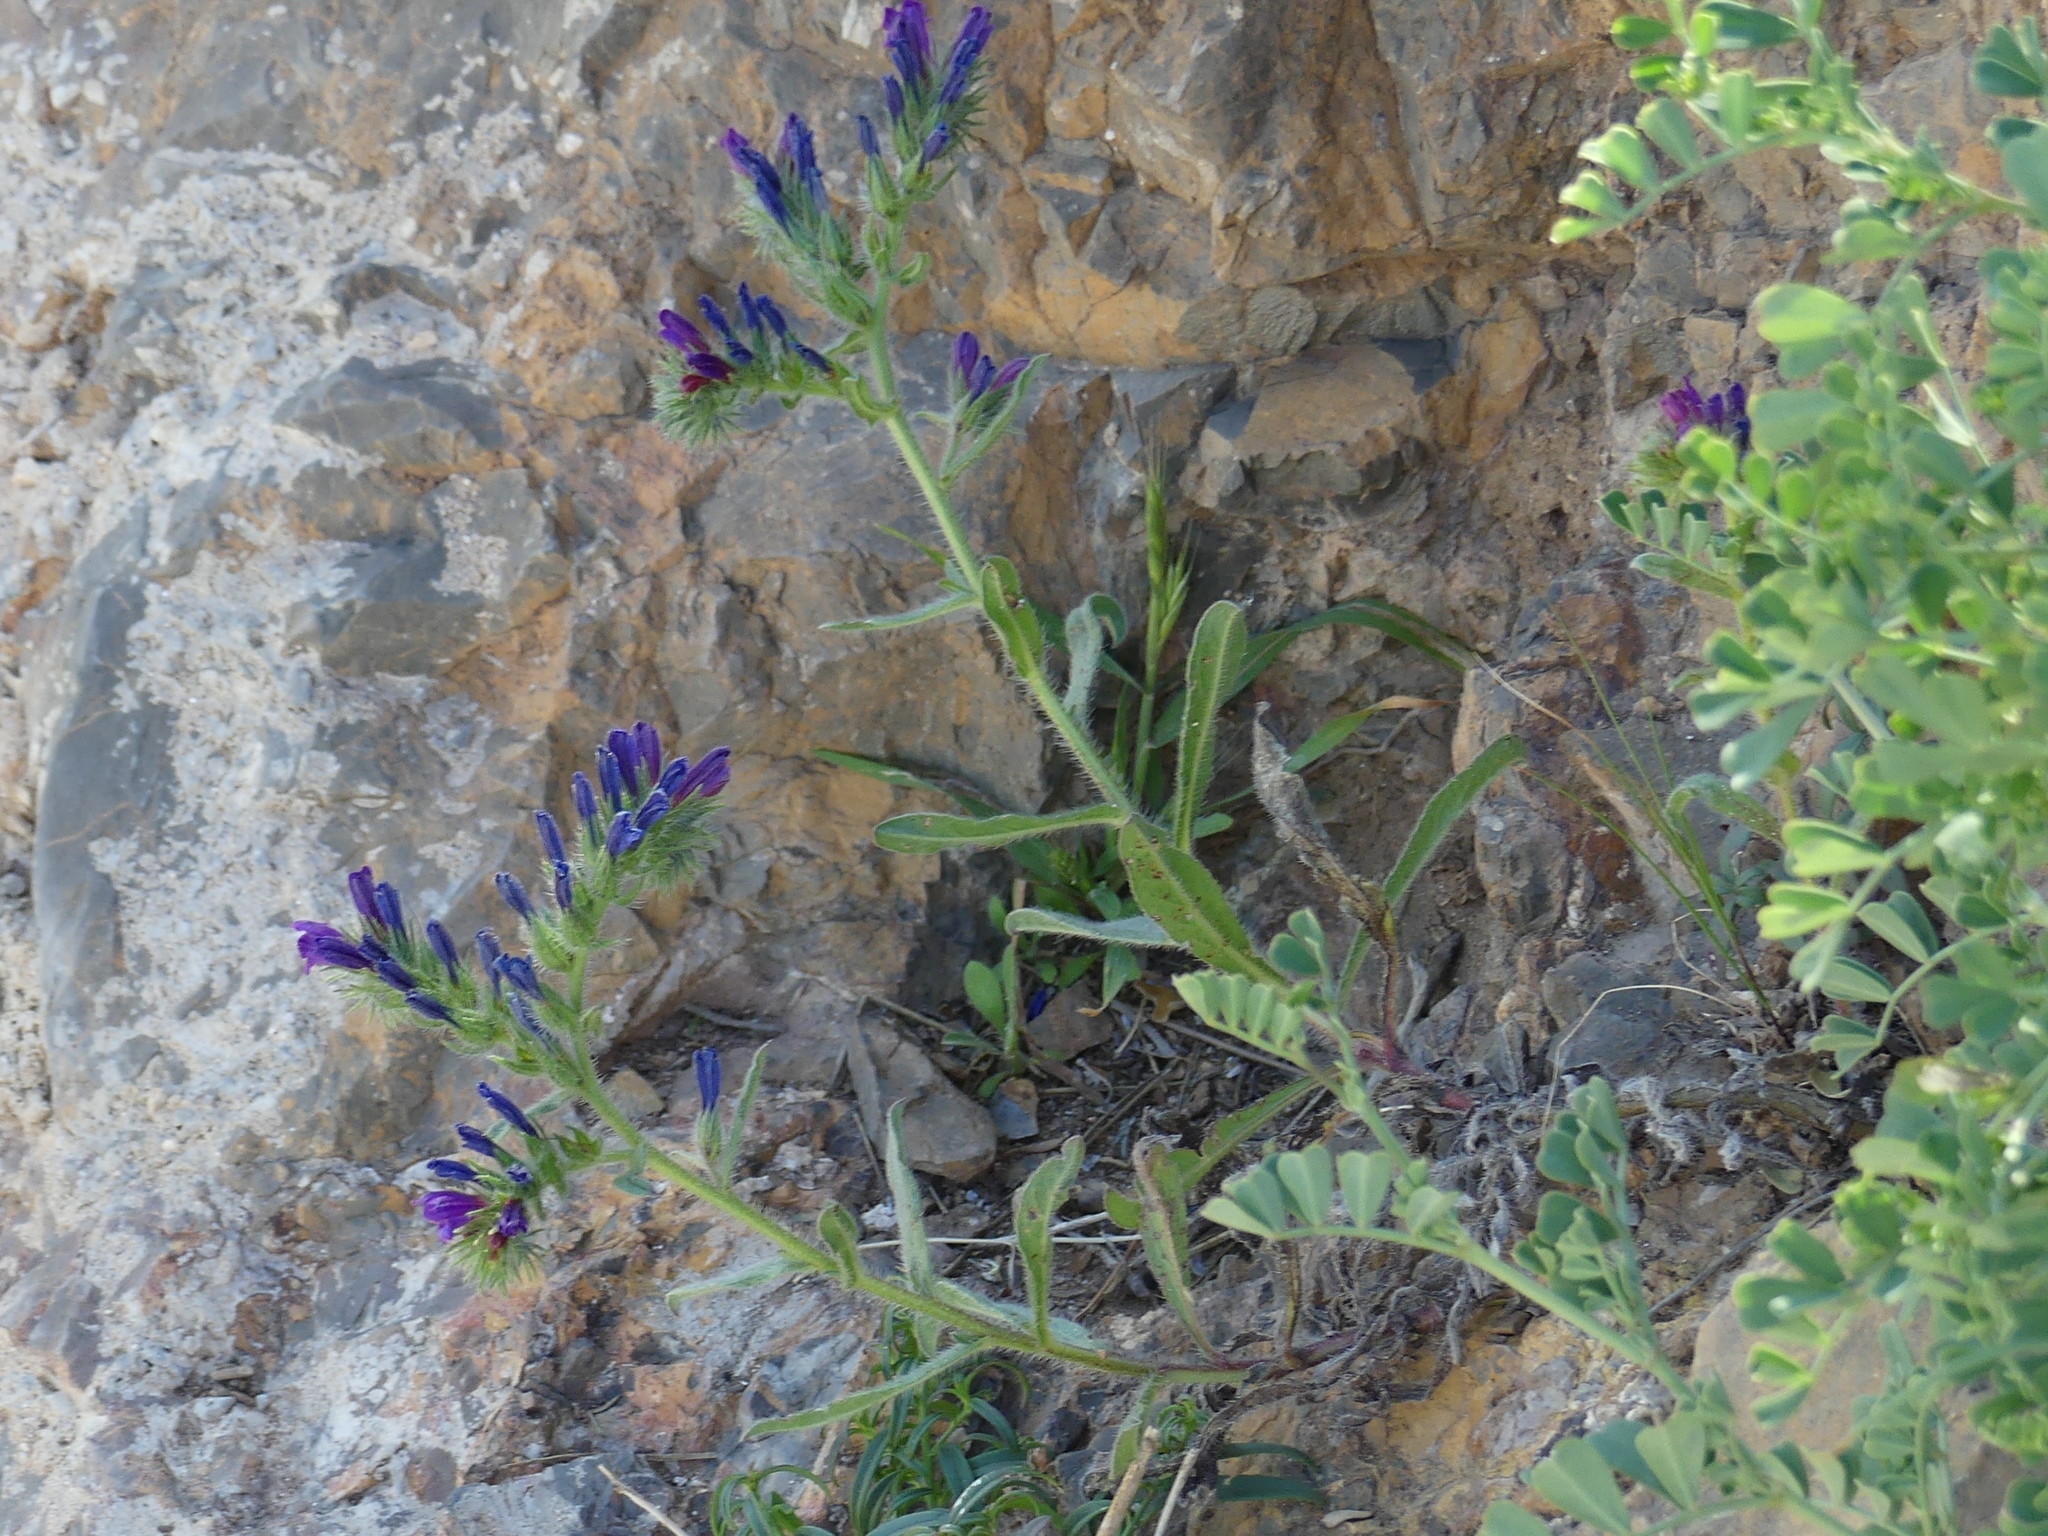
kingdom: Plantae
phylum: Tracheophyta
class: Magnoliopsida
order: Boraginales
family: Boraginaceae
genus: Echium
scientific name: Echium sabulicola
